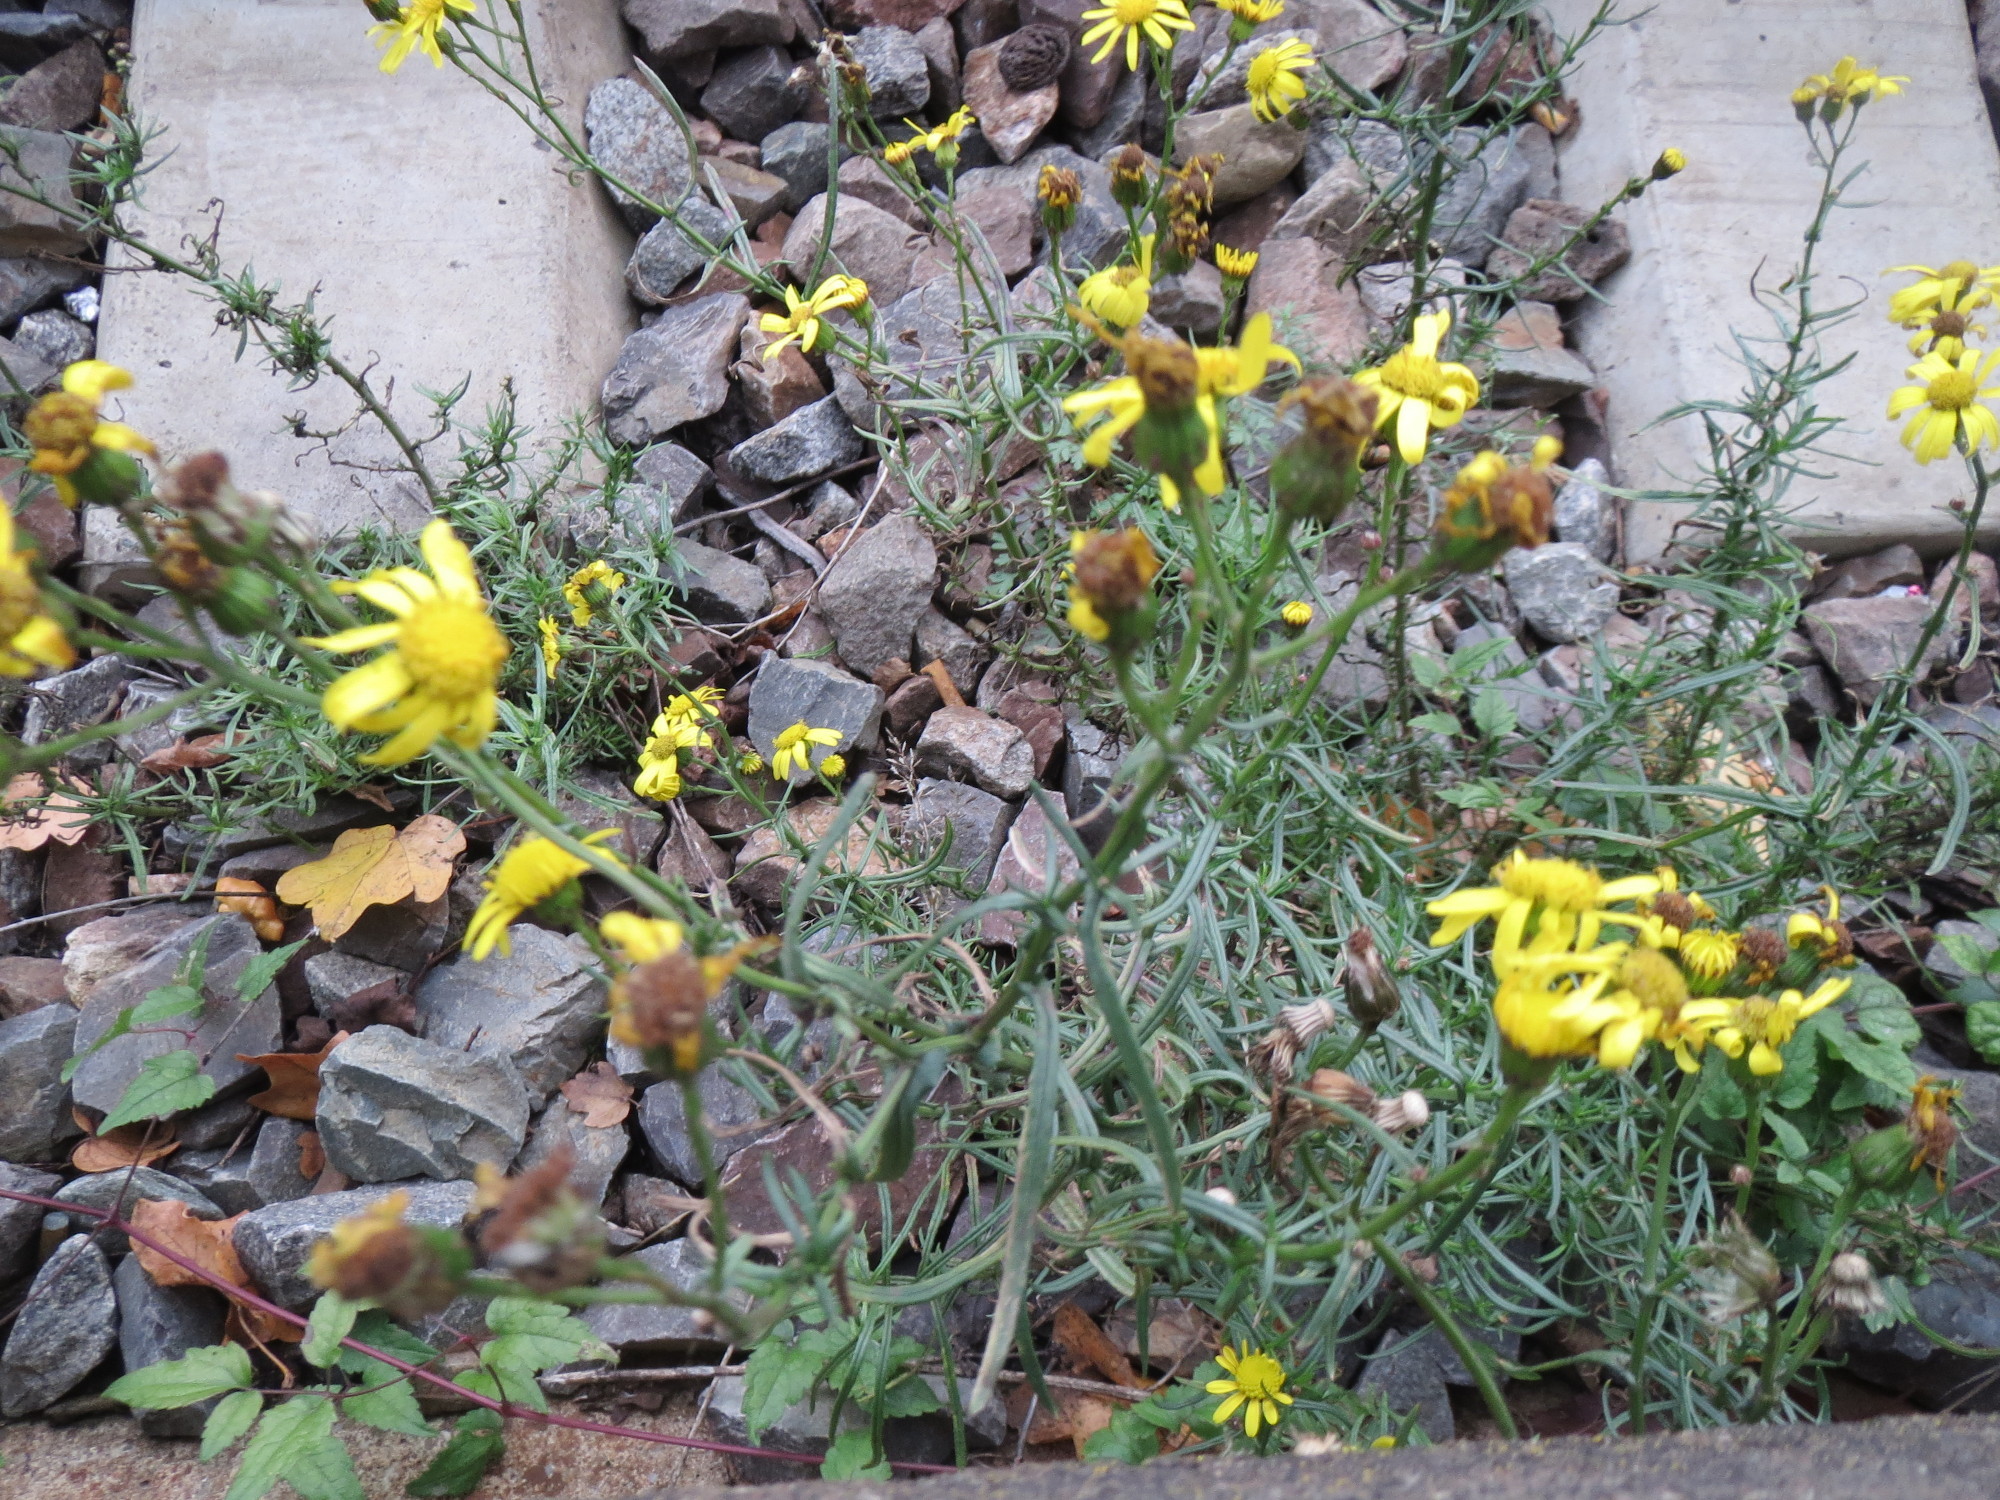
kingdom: Plantae
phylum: Tracheophyta
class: Magnoliopsida
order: Asterales
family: Asteraceae
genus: Senecio
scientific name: Senecio inaequidens
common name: Narrow-leaved ragwort
